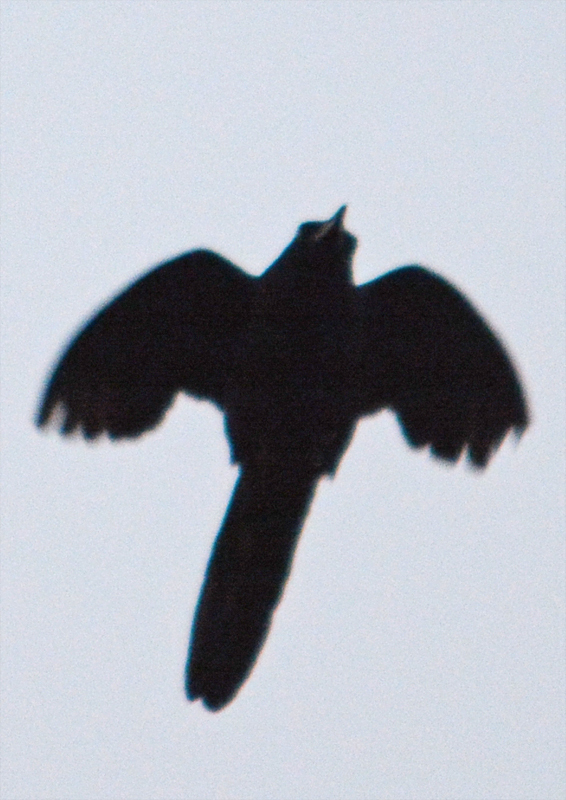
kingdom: Animalia
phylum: Chordata
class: Aves
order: Passeriformes
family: Icteridae
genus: Quiscalus
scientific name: Quiscalus mexicanus
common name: Great-tailed grackle
